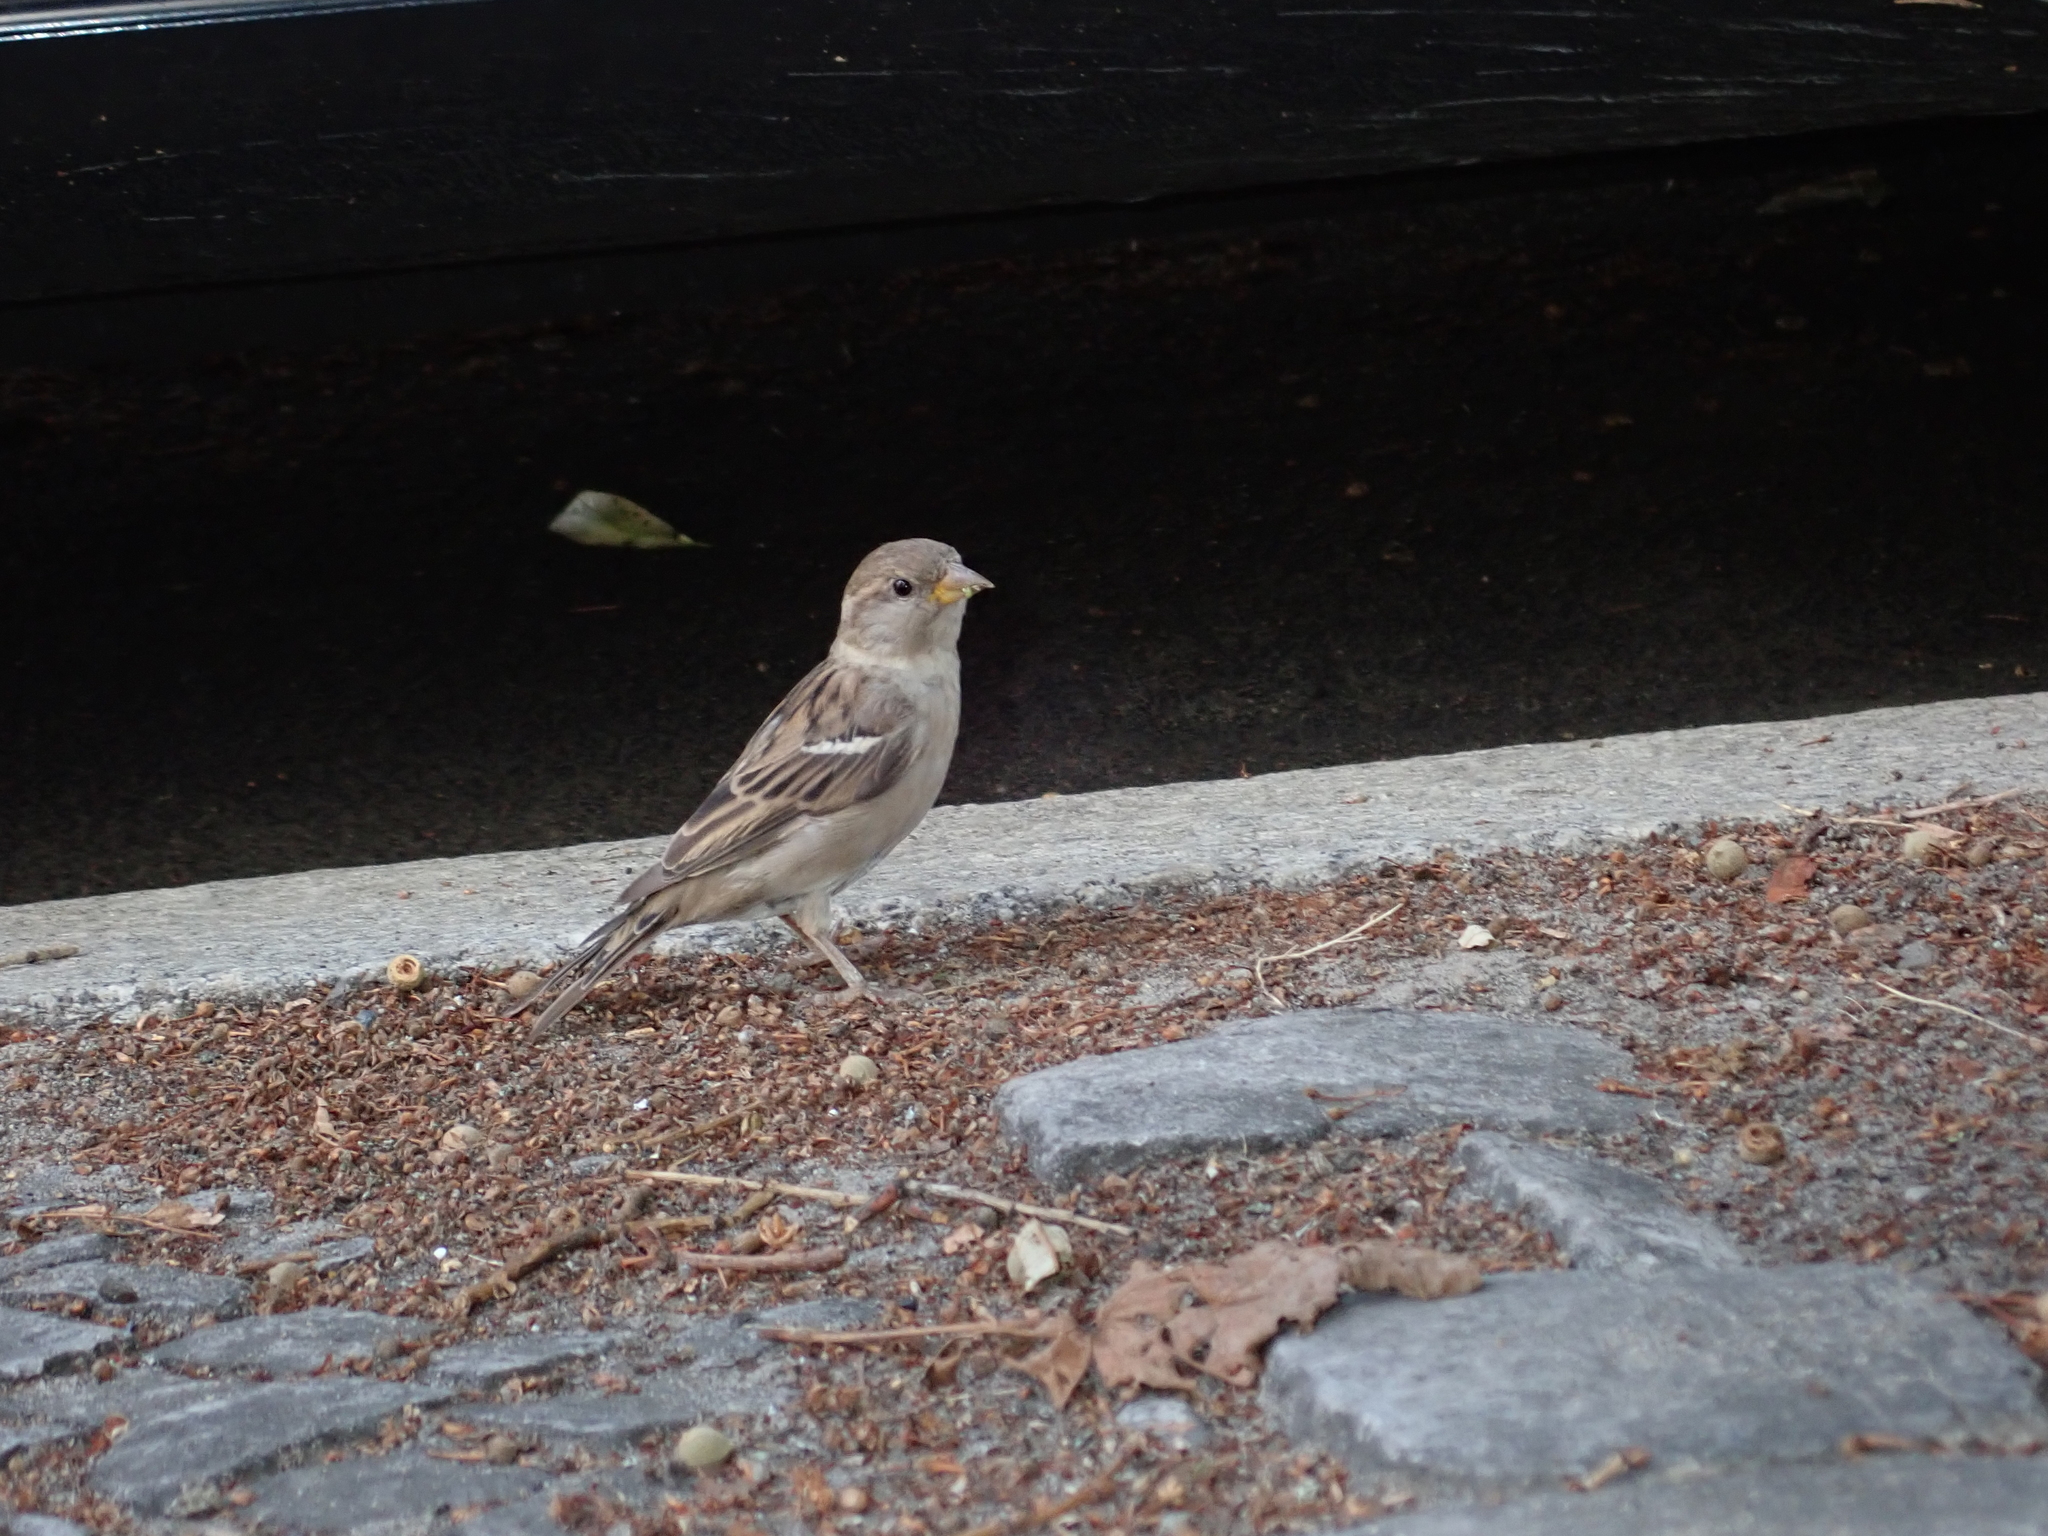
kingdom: Animalia
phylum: Chordata
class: Aves
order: Passeriformes
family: Passeridae
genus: Passer
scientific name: Passer domesticus
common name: House sparrow
